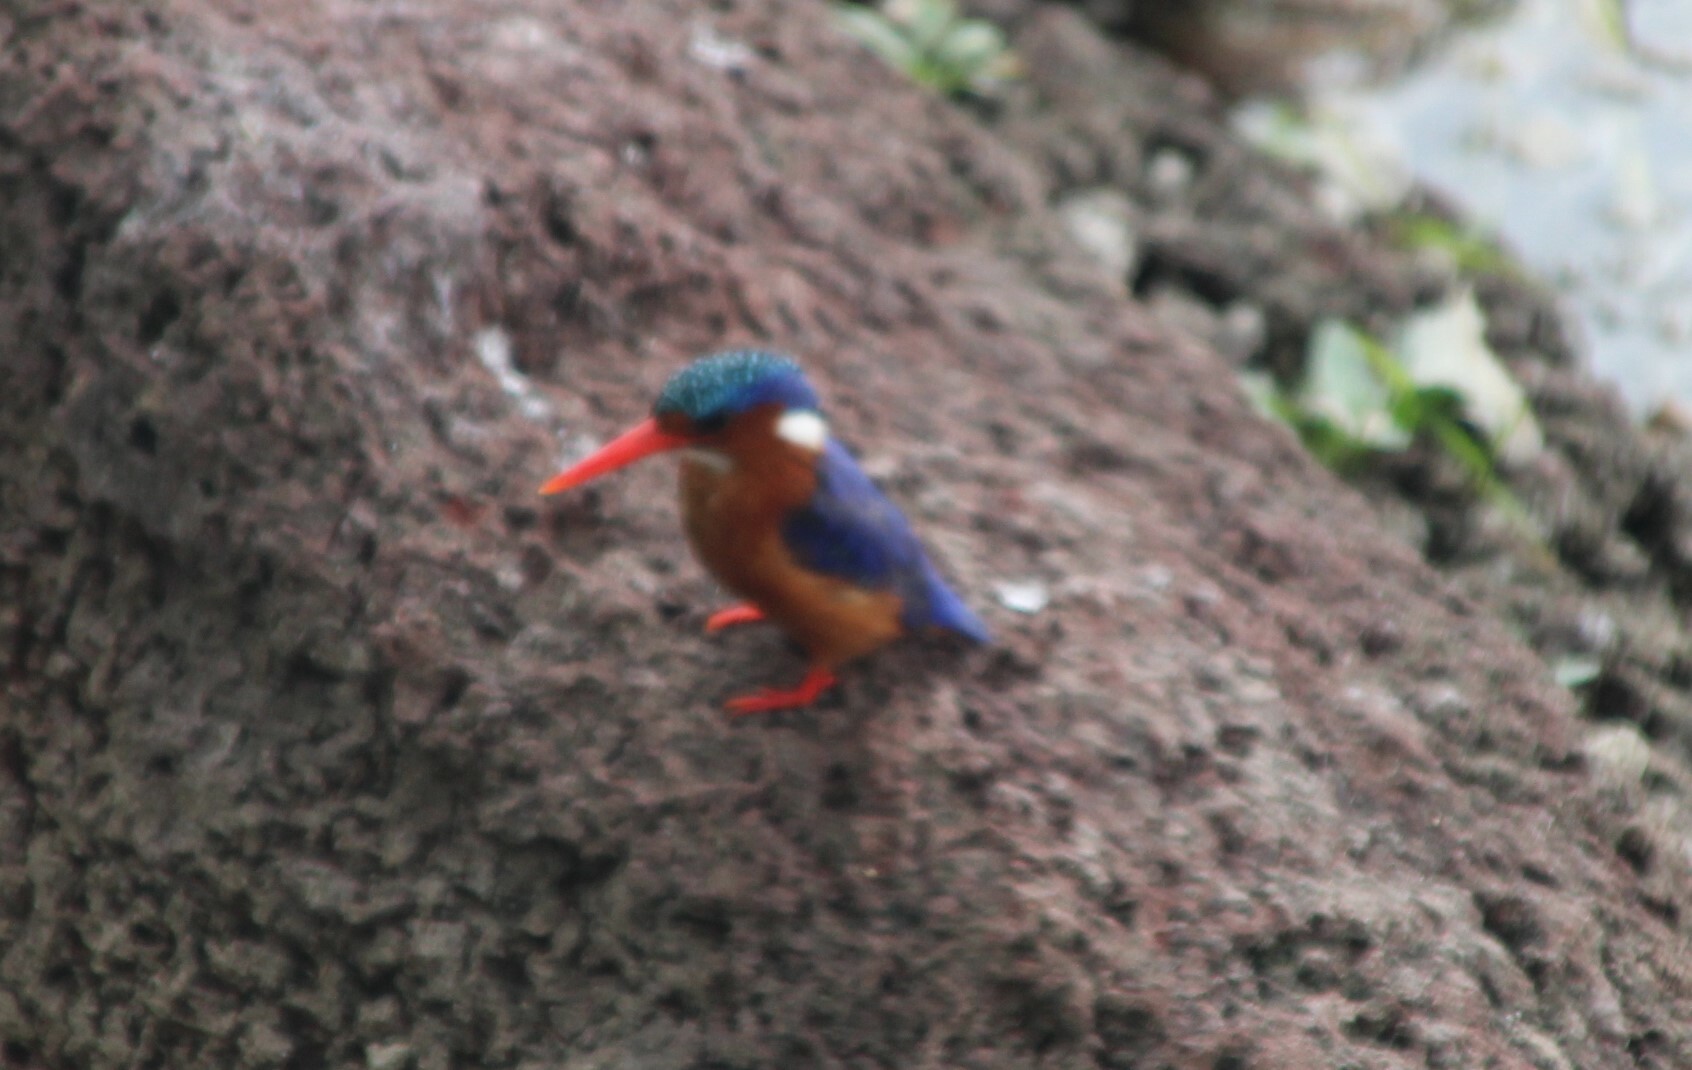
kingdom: Animalia
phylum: Chordata
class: Aves
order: Coraciiformes
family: Alcedinidae
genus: Corythornis
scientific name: Corythornis cristatus
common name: Malachite kingfisher
